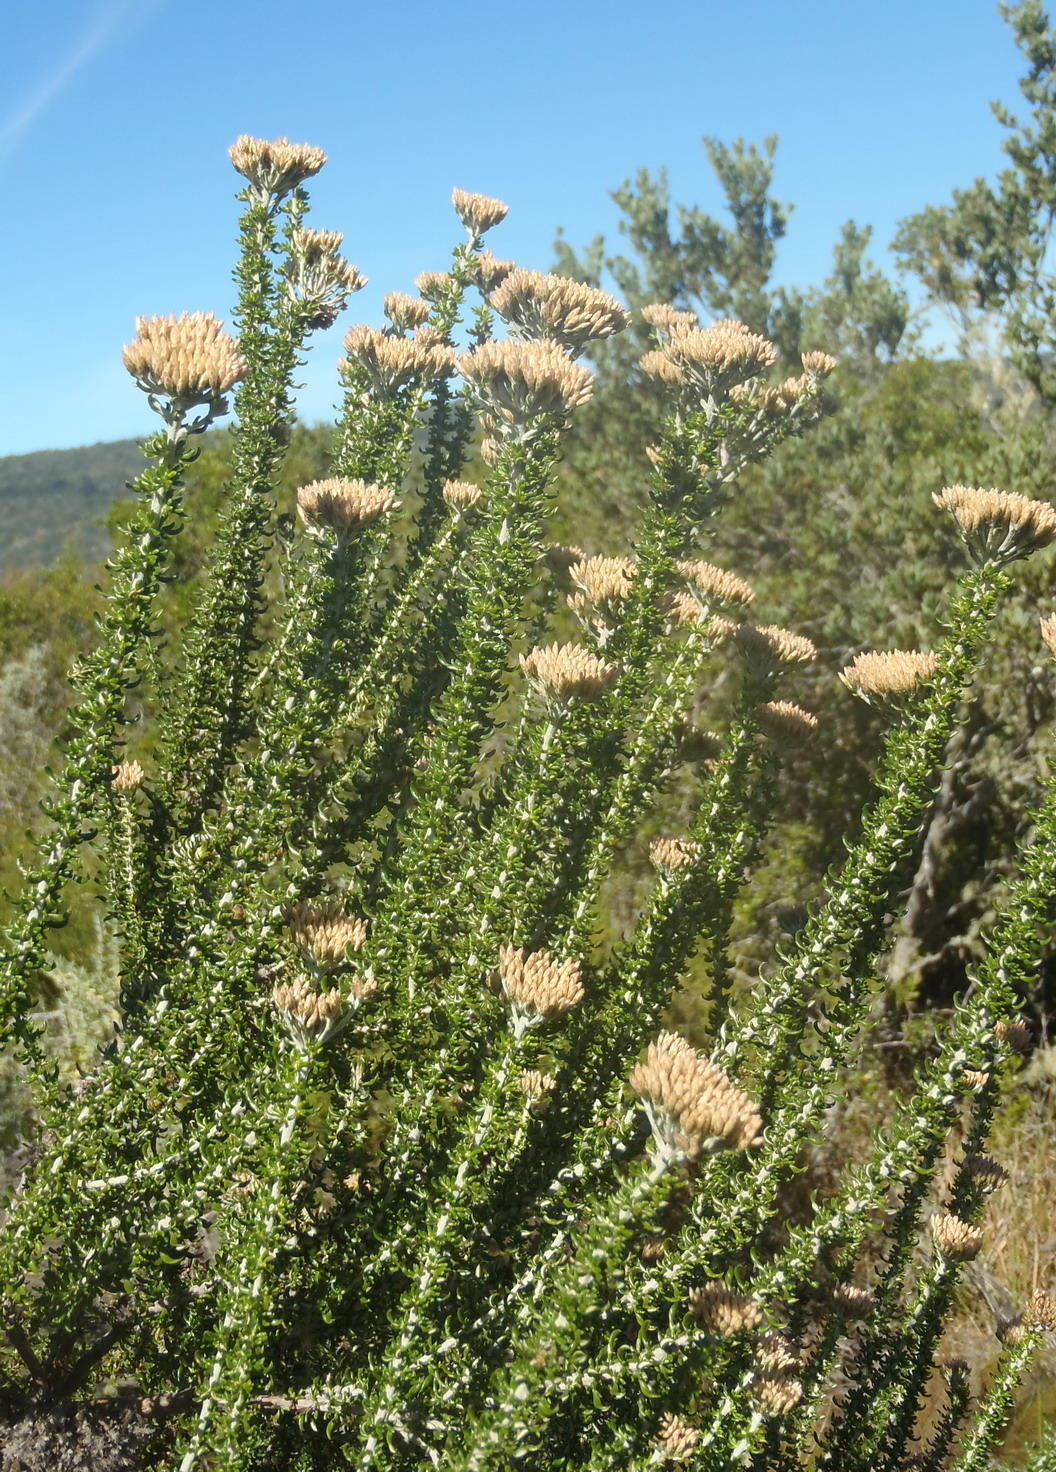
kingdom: Plantae
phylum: Tracheophyta
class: Magnoliopsida
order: Asterales
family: Asteraceae
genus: Metalasia
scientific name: Metalasia muricata
